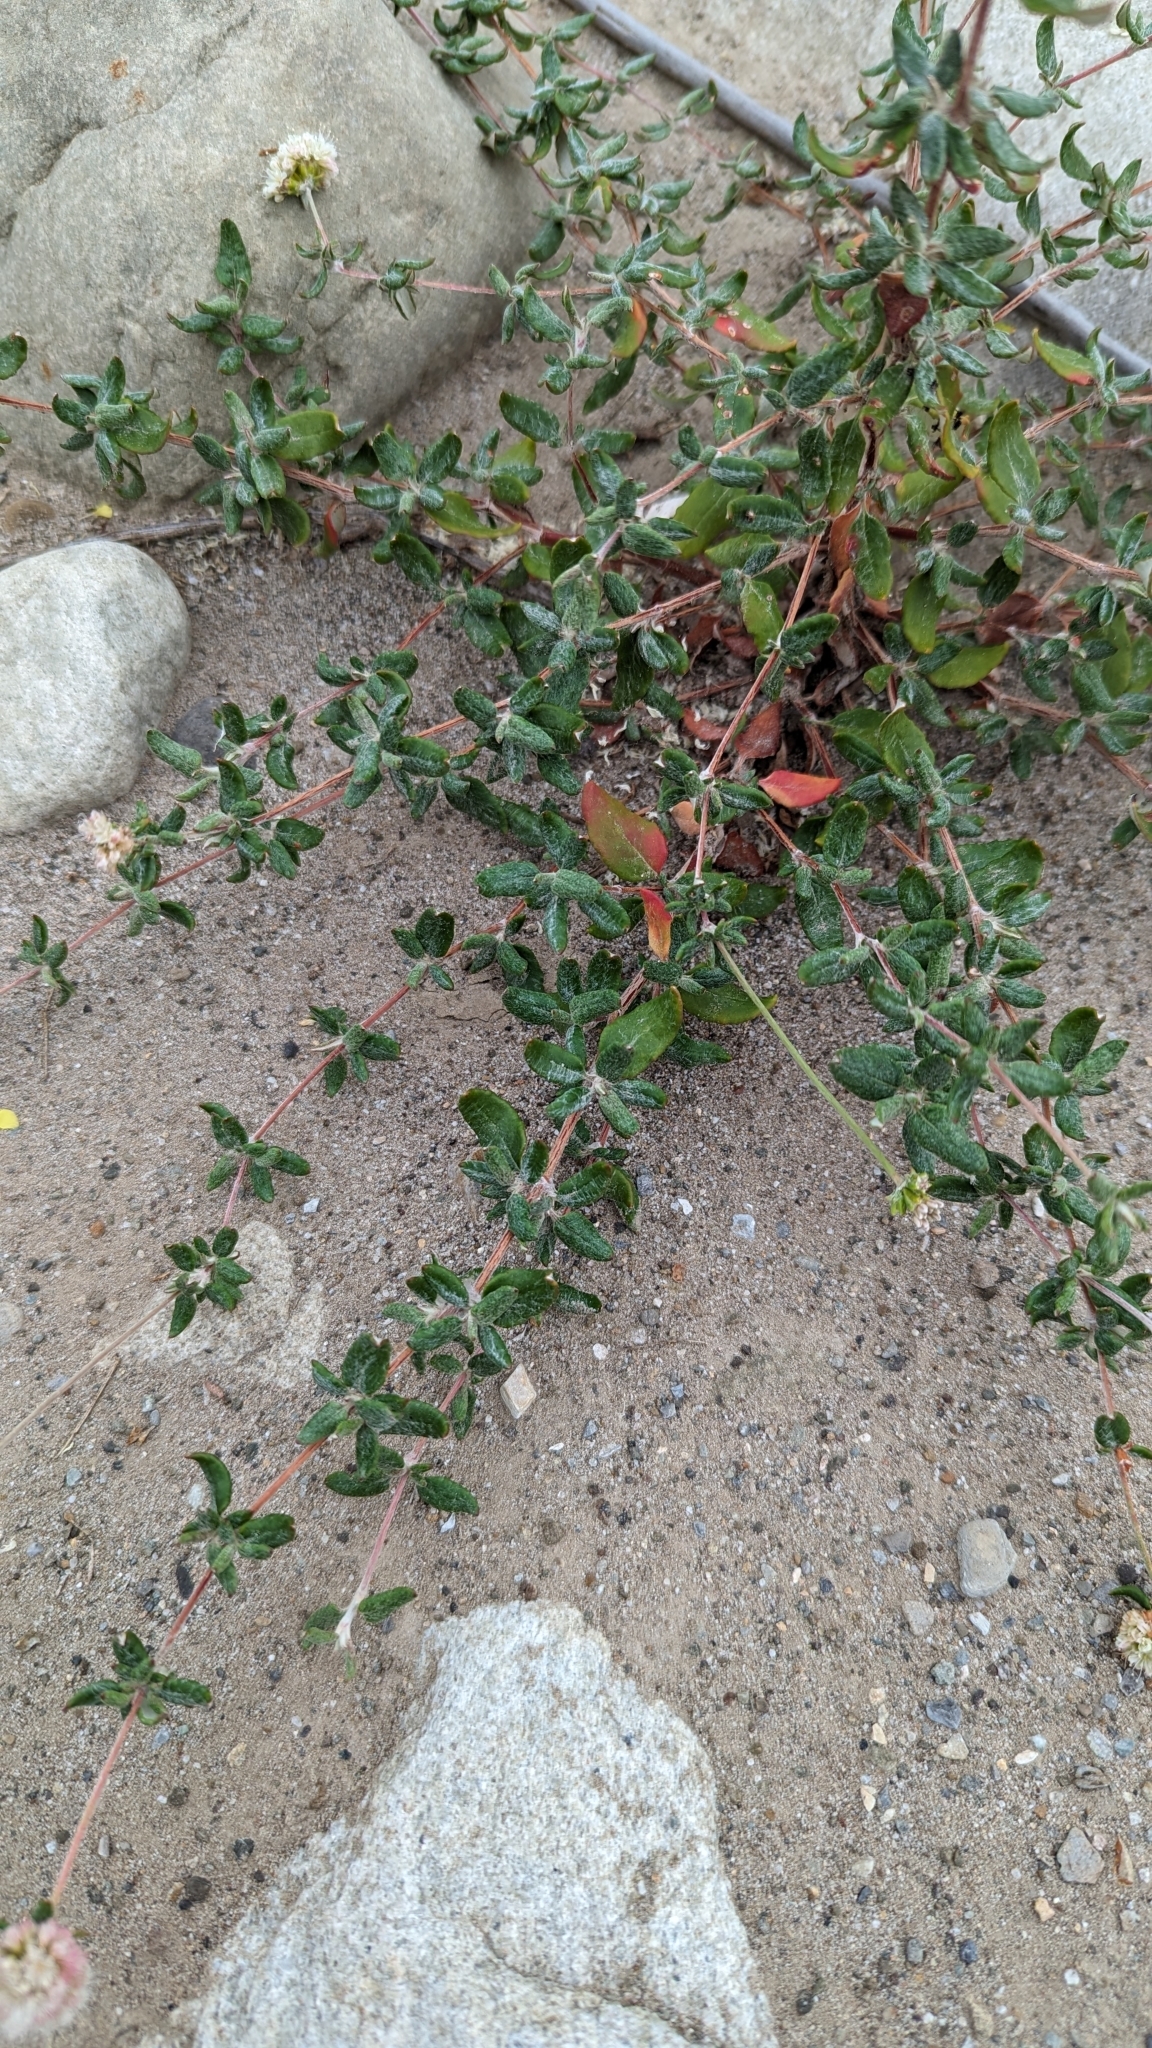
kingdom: Plantae
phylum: Tracheophyta
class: Magnoliopsida
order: Caryophyllales
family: Polygonaceae
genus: Eriogonum
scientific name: Eriogonum parvifolium
